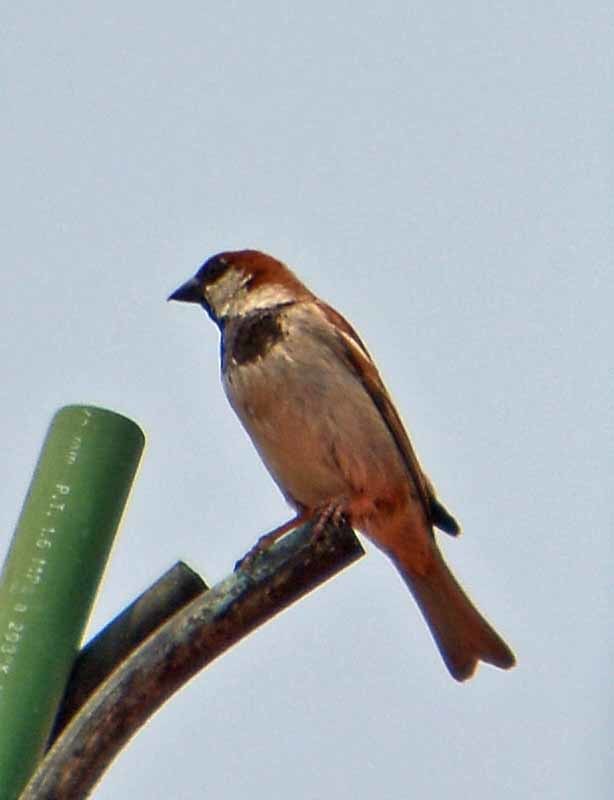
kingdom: Animalia
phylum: Chordata
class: Aves
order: Passeriformes
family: Passeridae
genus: Passer
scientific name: Passer domesticus
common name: House sparrow
